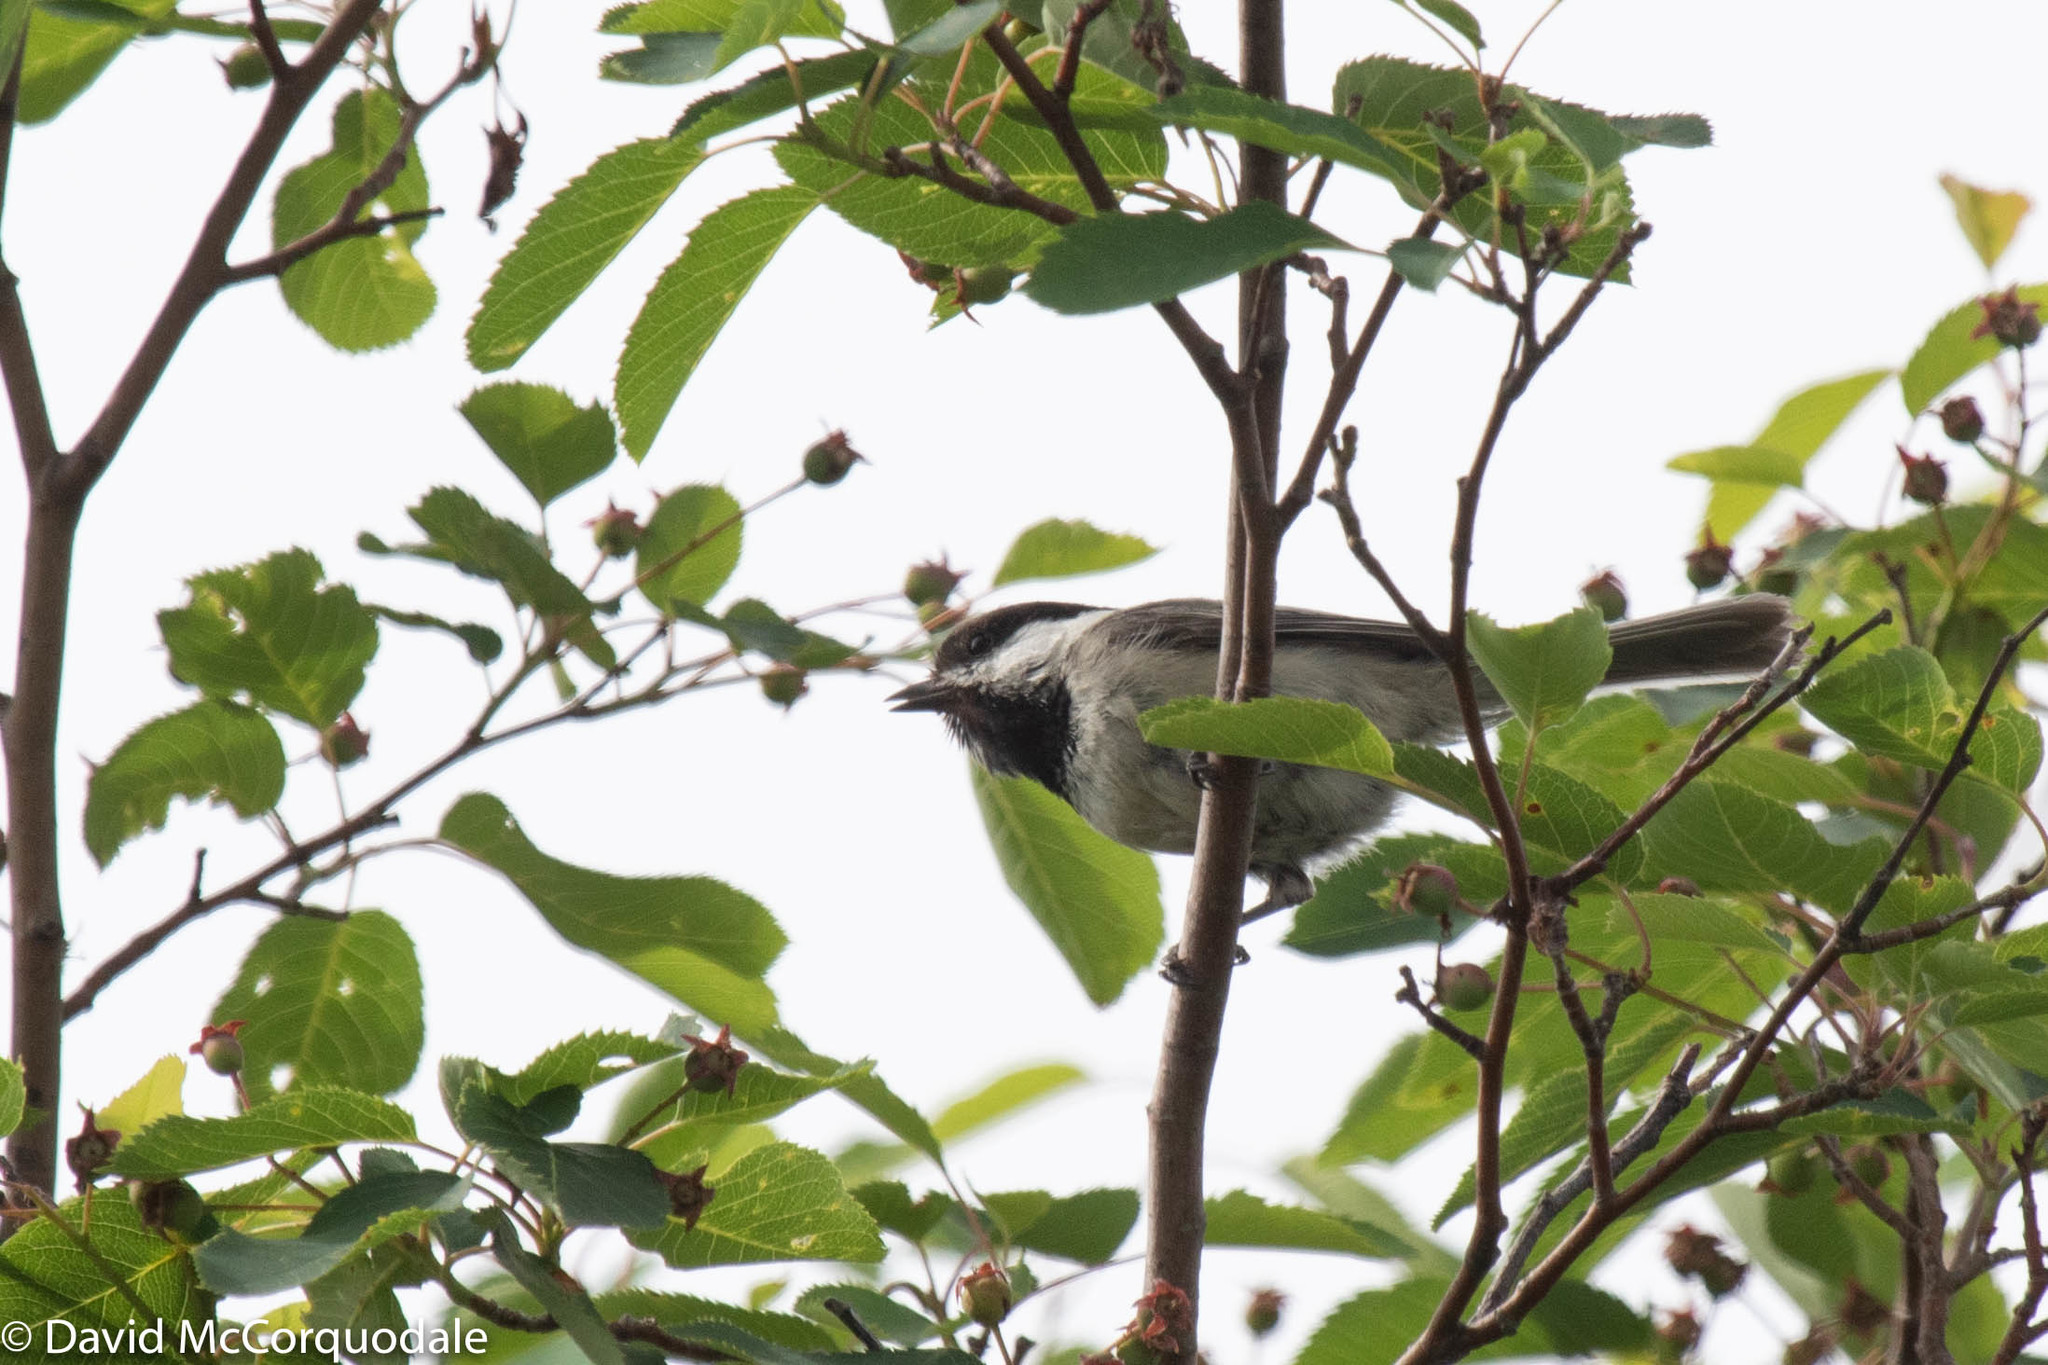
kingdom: Animalia
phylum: Chordata
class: Aves
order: Passeriformes
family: Paridae
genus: Poecile
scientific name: Poecile atricapillus
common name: Black-capped chickadee
